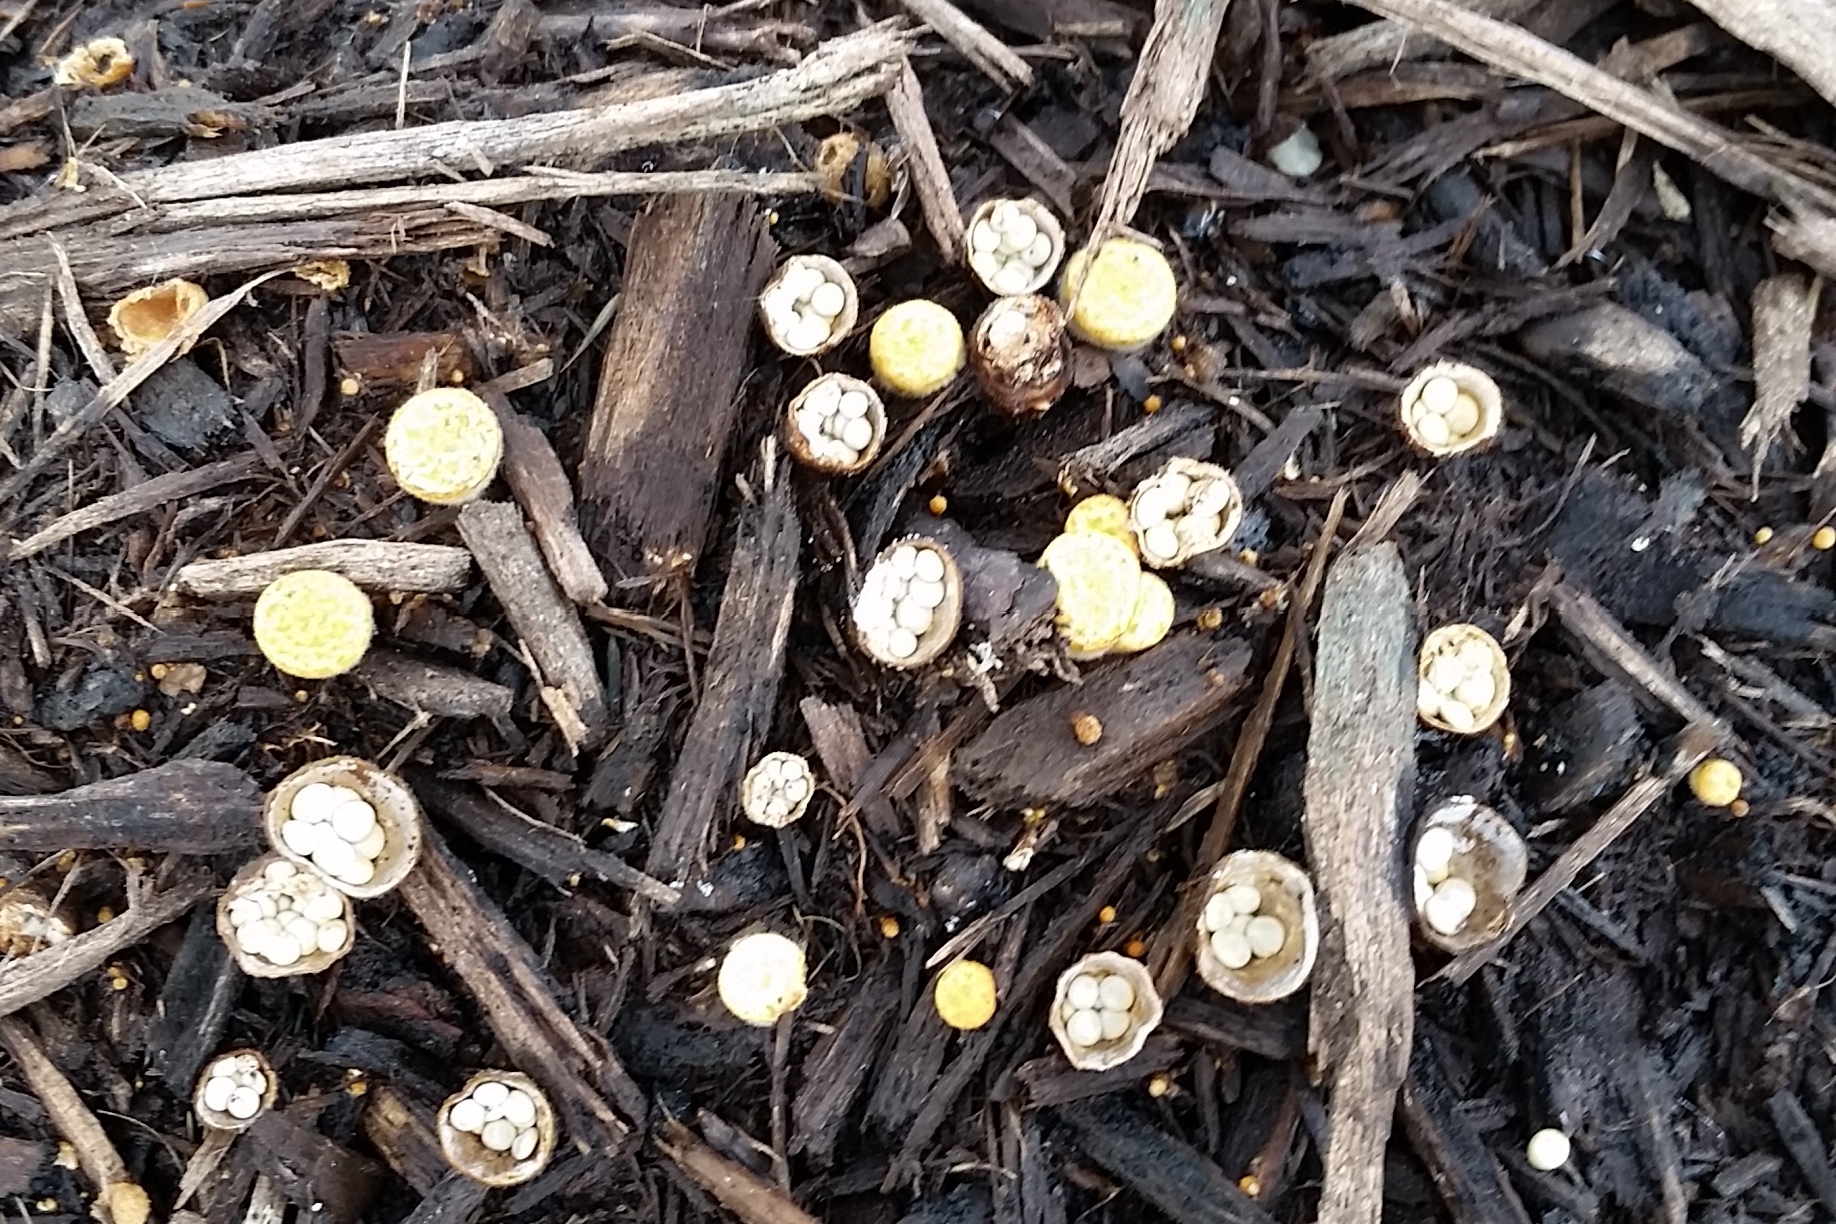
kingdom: Fungi
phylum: Basidiomycota
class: Agaricomycetes
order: Agaricales
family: Nidulariaceae
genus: Crucibulum
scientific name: Crucibulum laeve
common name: Common bird's nest
